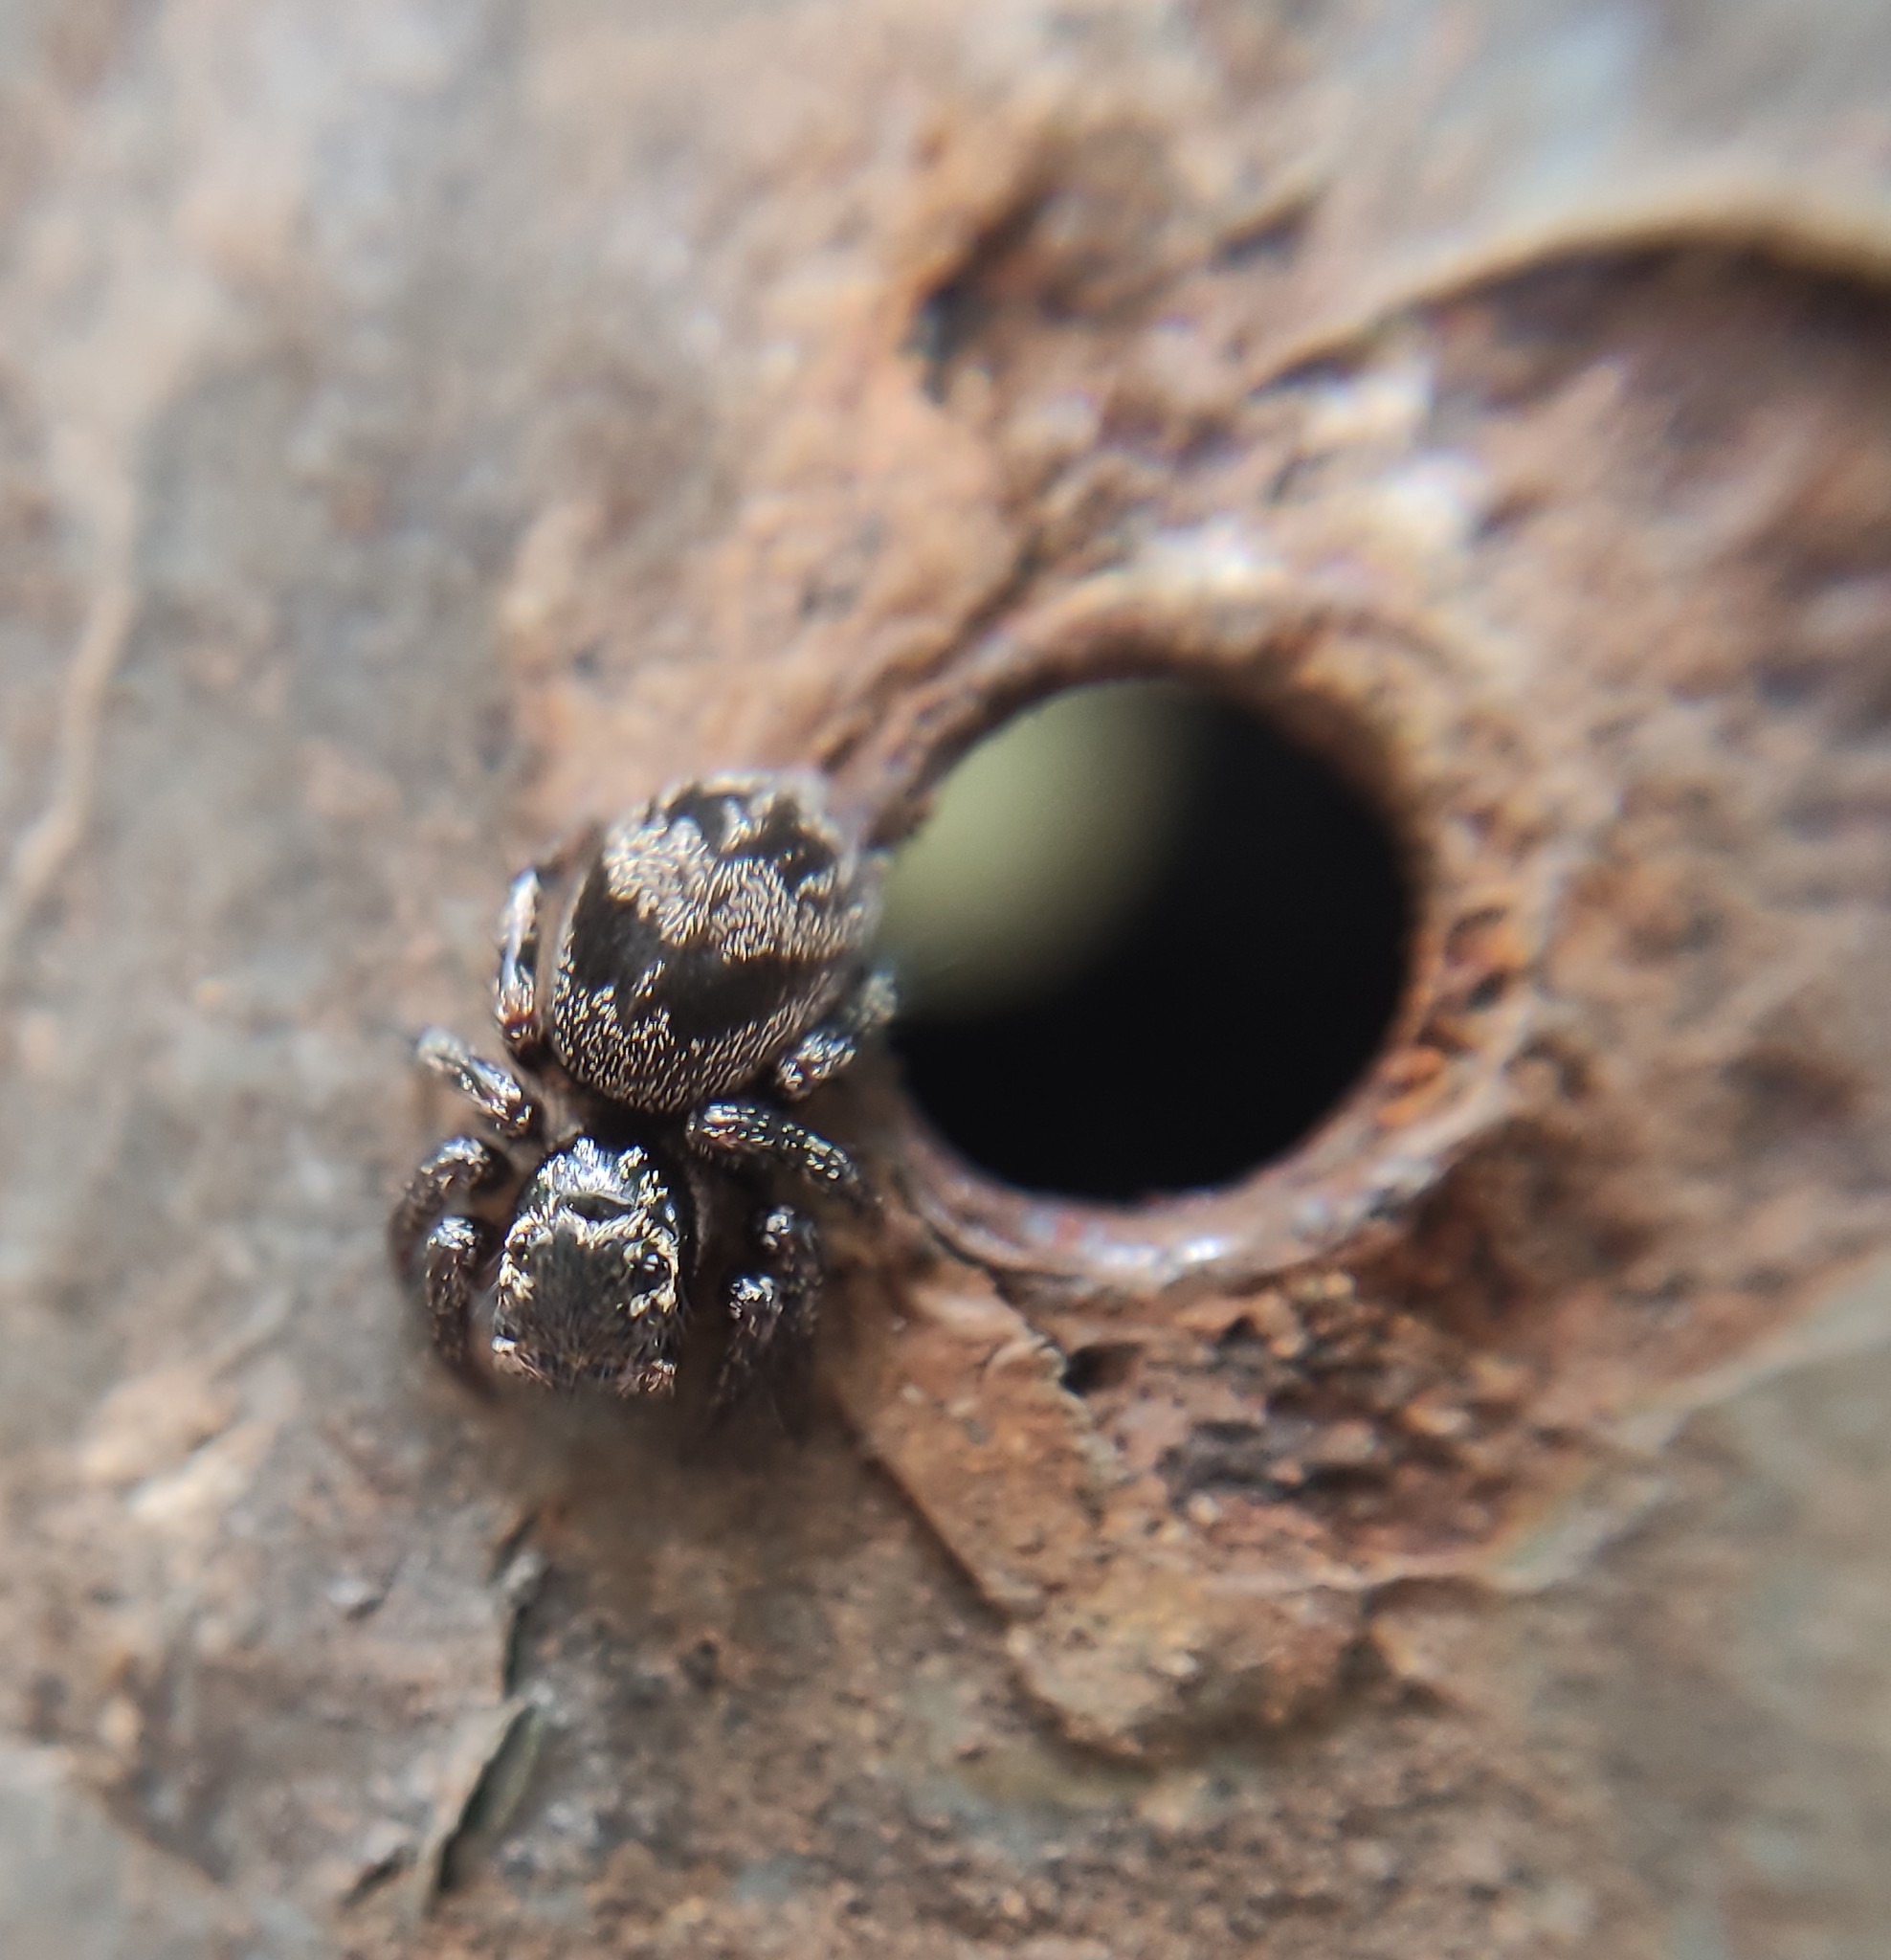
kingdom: Animalia
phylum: Arthropoda
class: Arachnida
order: Araneae
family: Salticidae
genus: Corythalia
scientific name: Corythalia conferta
